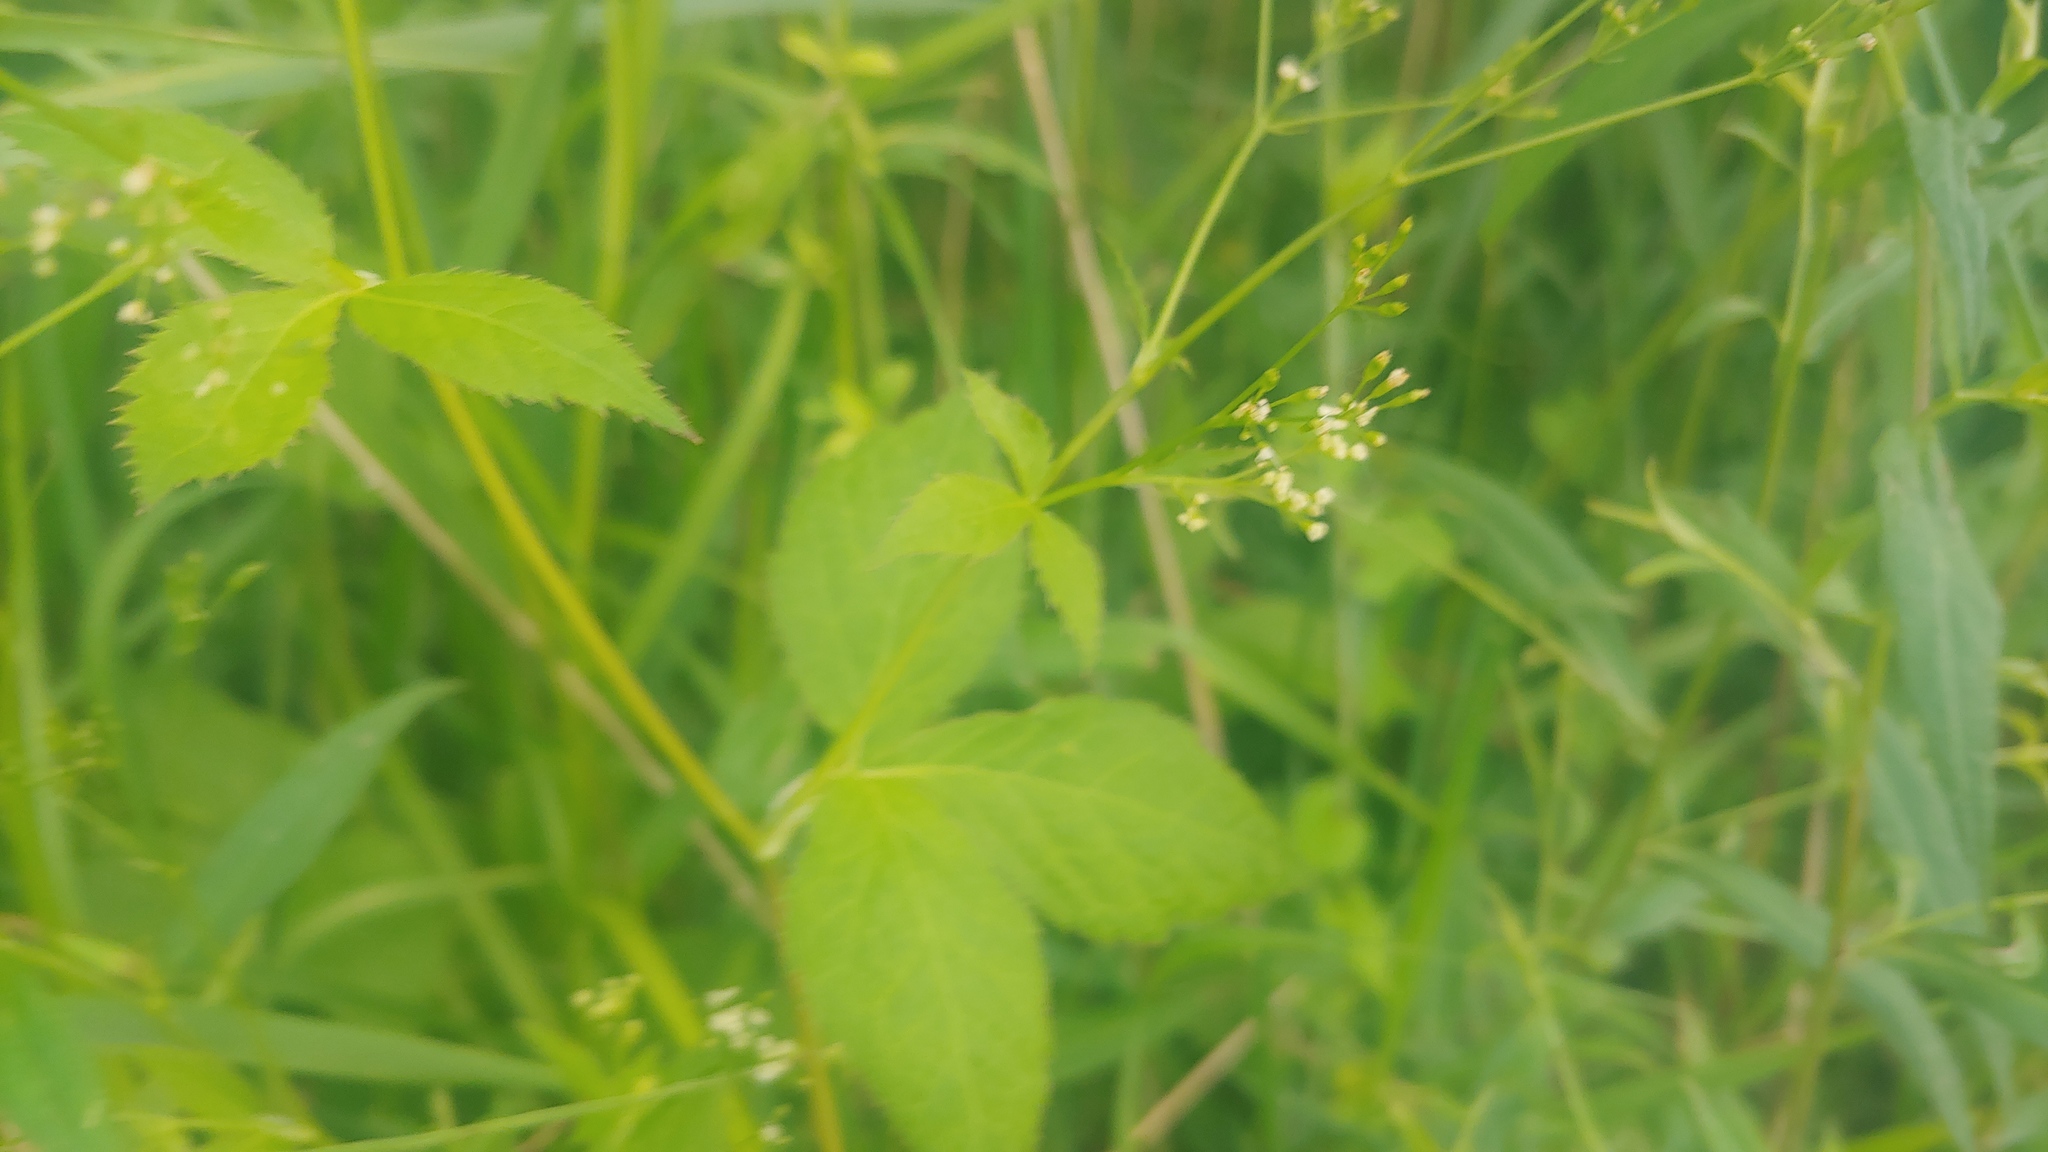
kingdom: Plantae
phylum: Tracheophyta
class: Magnoliopsida
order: Apiales
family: Apiaceae
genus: Cryptotaenia
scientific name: Cryptotaenia canadensis
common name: Honewort
